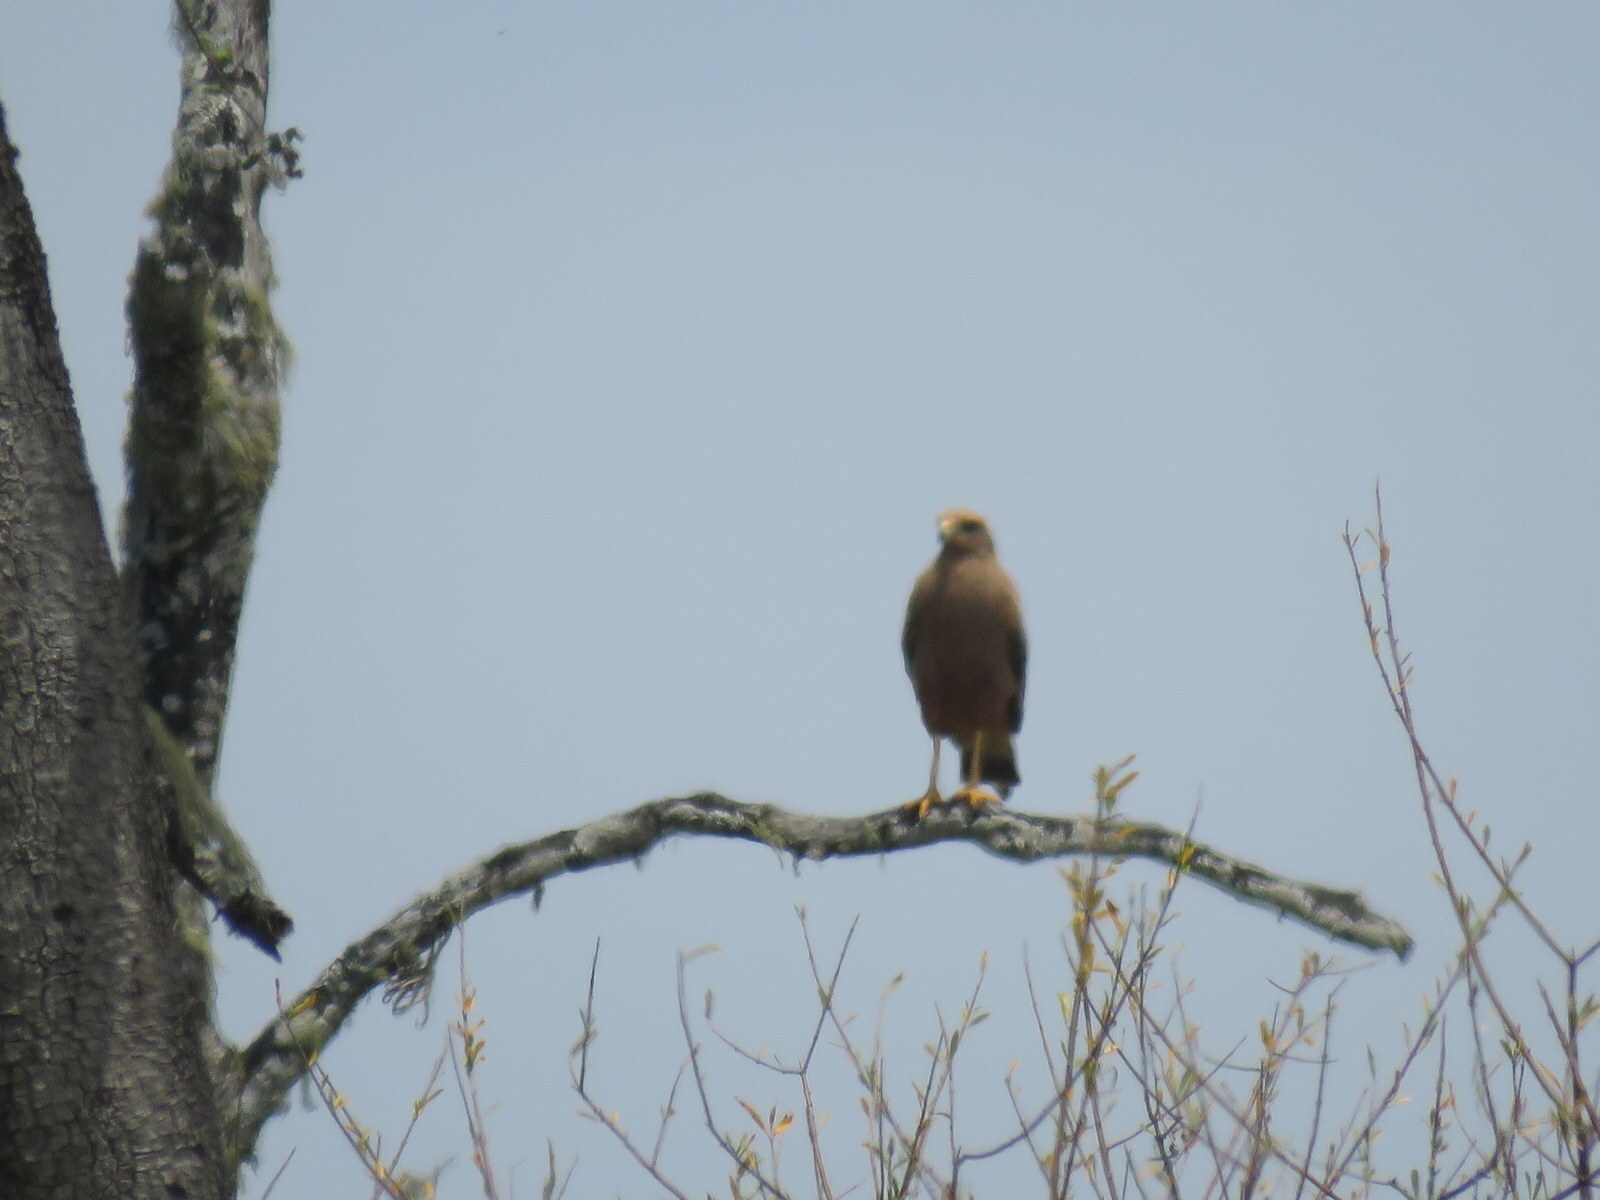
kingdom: Animalia
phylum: Chordata
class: Aves
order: Accipitriformes
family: Accipitridae
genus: Buteogallus
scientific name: Buteogallus meridionalis
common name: Savanna hawk
